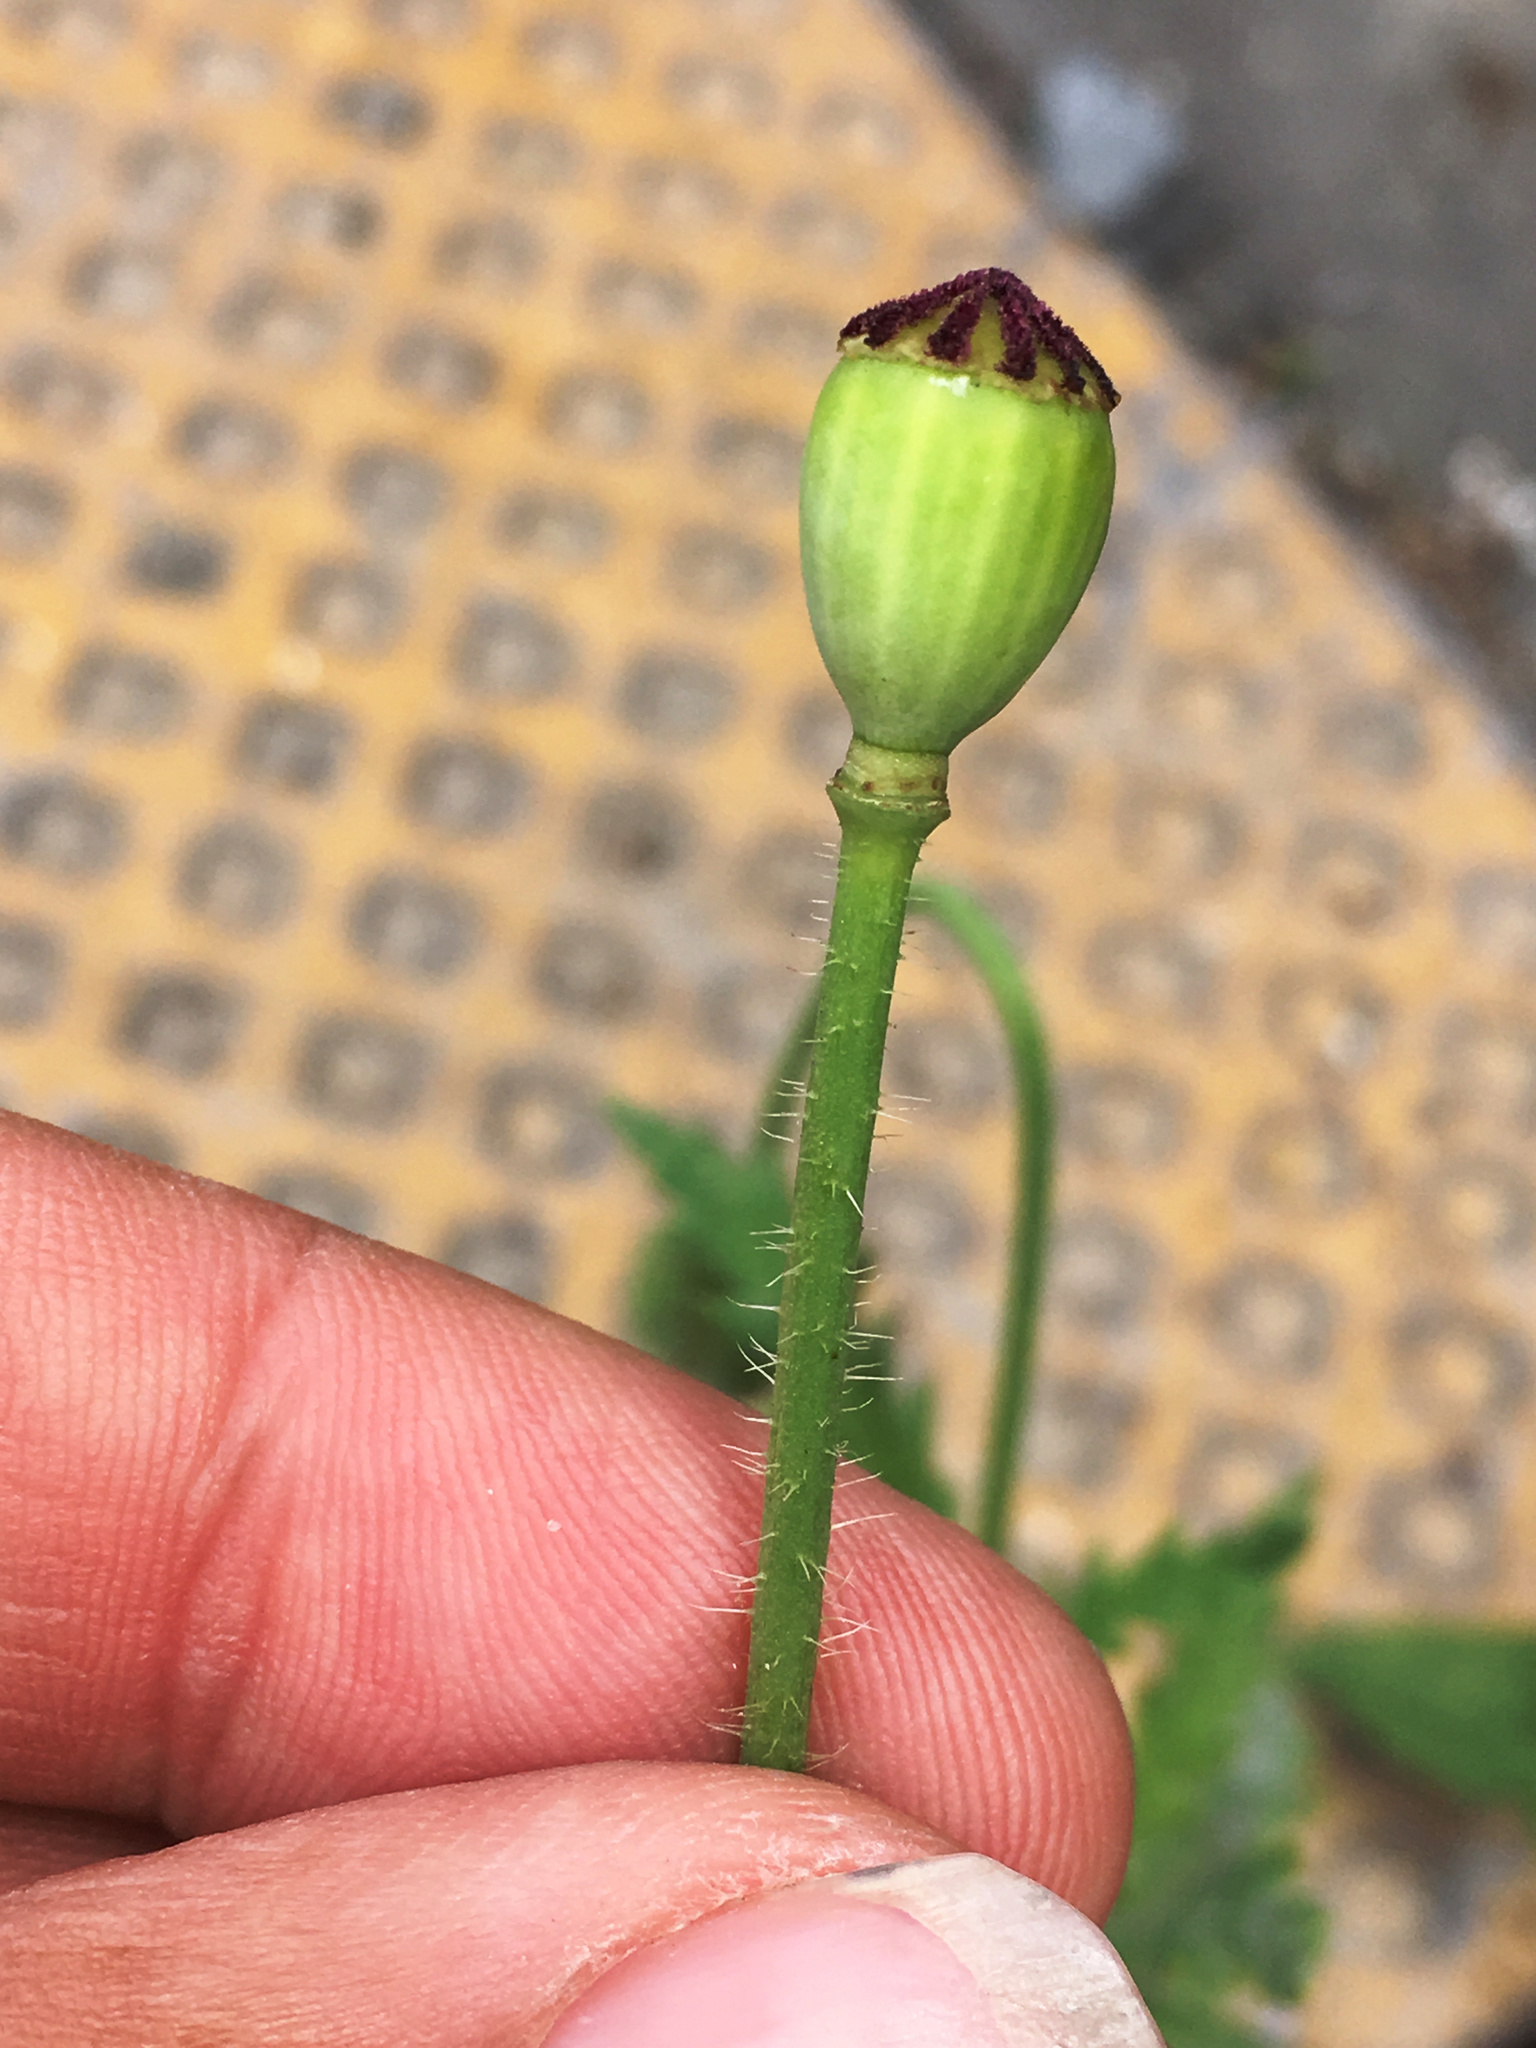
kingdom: Plantae
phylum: Tracheophyta
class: Magnoliopsida
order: Ranunculales
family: Papaveraceae
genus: Papaver
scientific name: Papaver rhoeas
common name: Corn poppy
